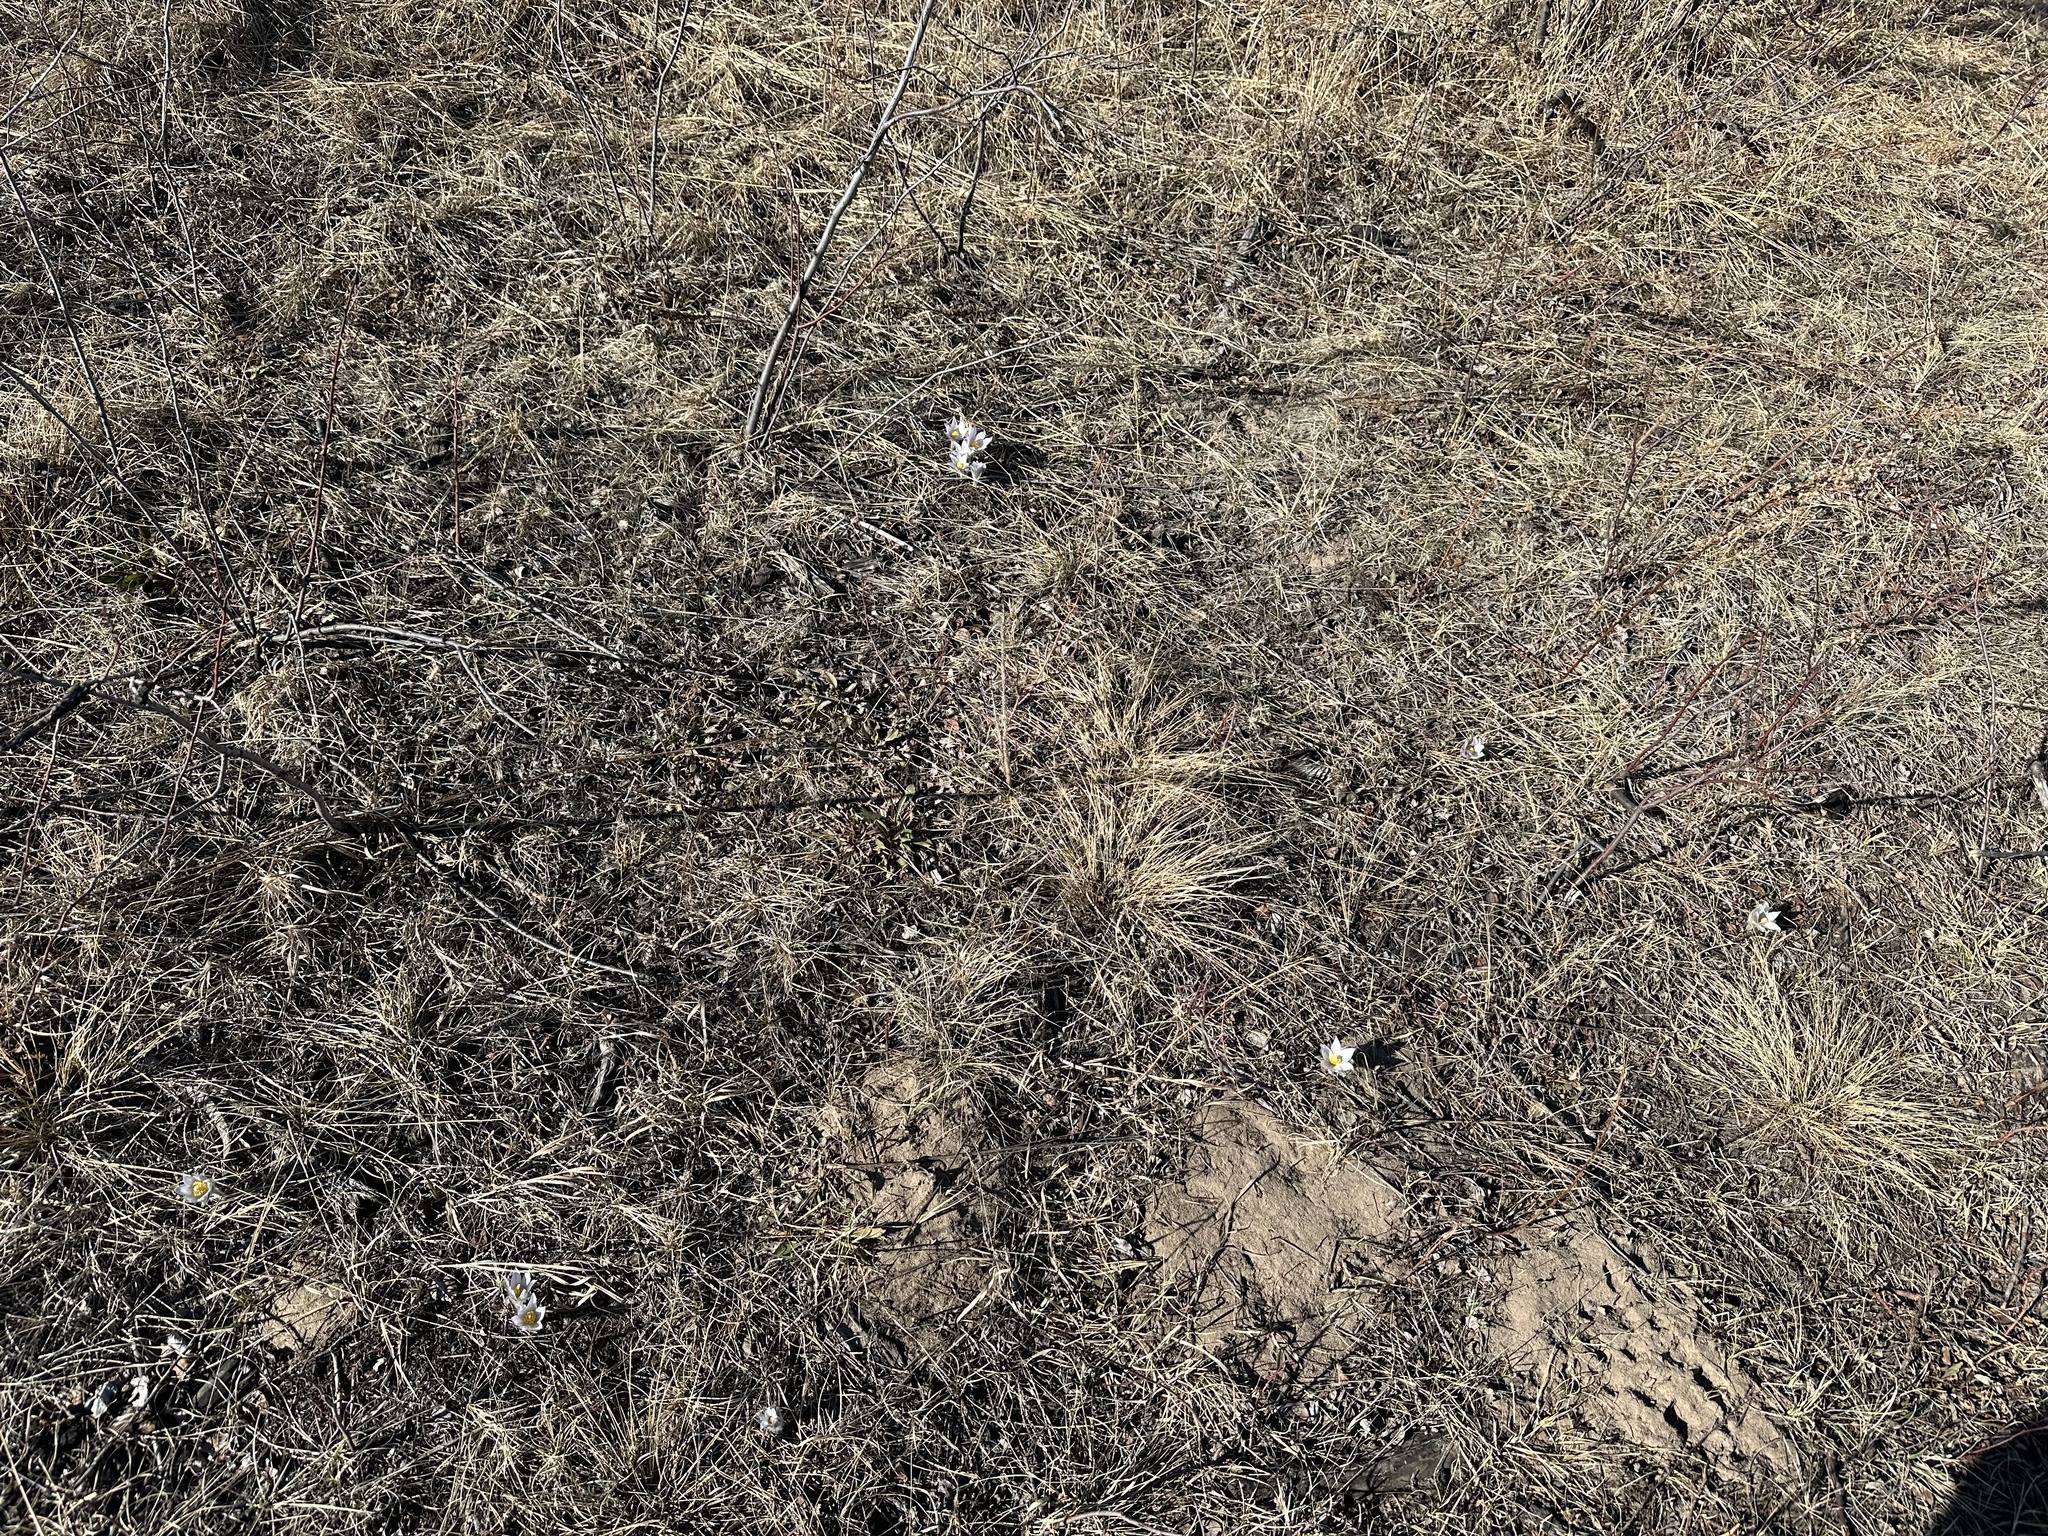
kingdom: Plantae
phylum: Tracheophyta
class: Magnoliopsida
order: Ranunculales
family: Ranunculaceae
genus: Pulsatilla
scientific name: Pulsatilla nuttalliana
